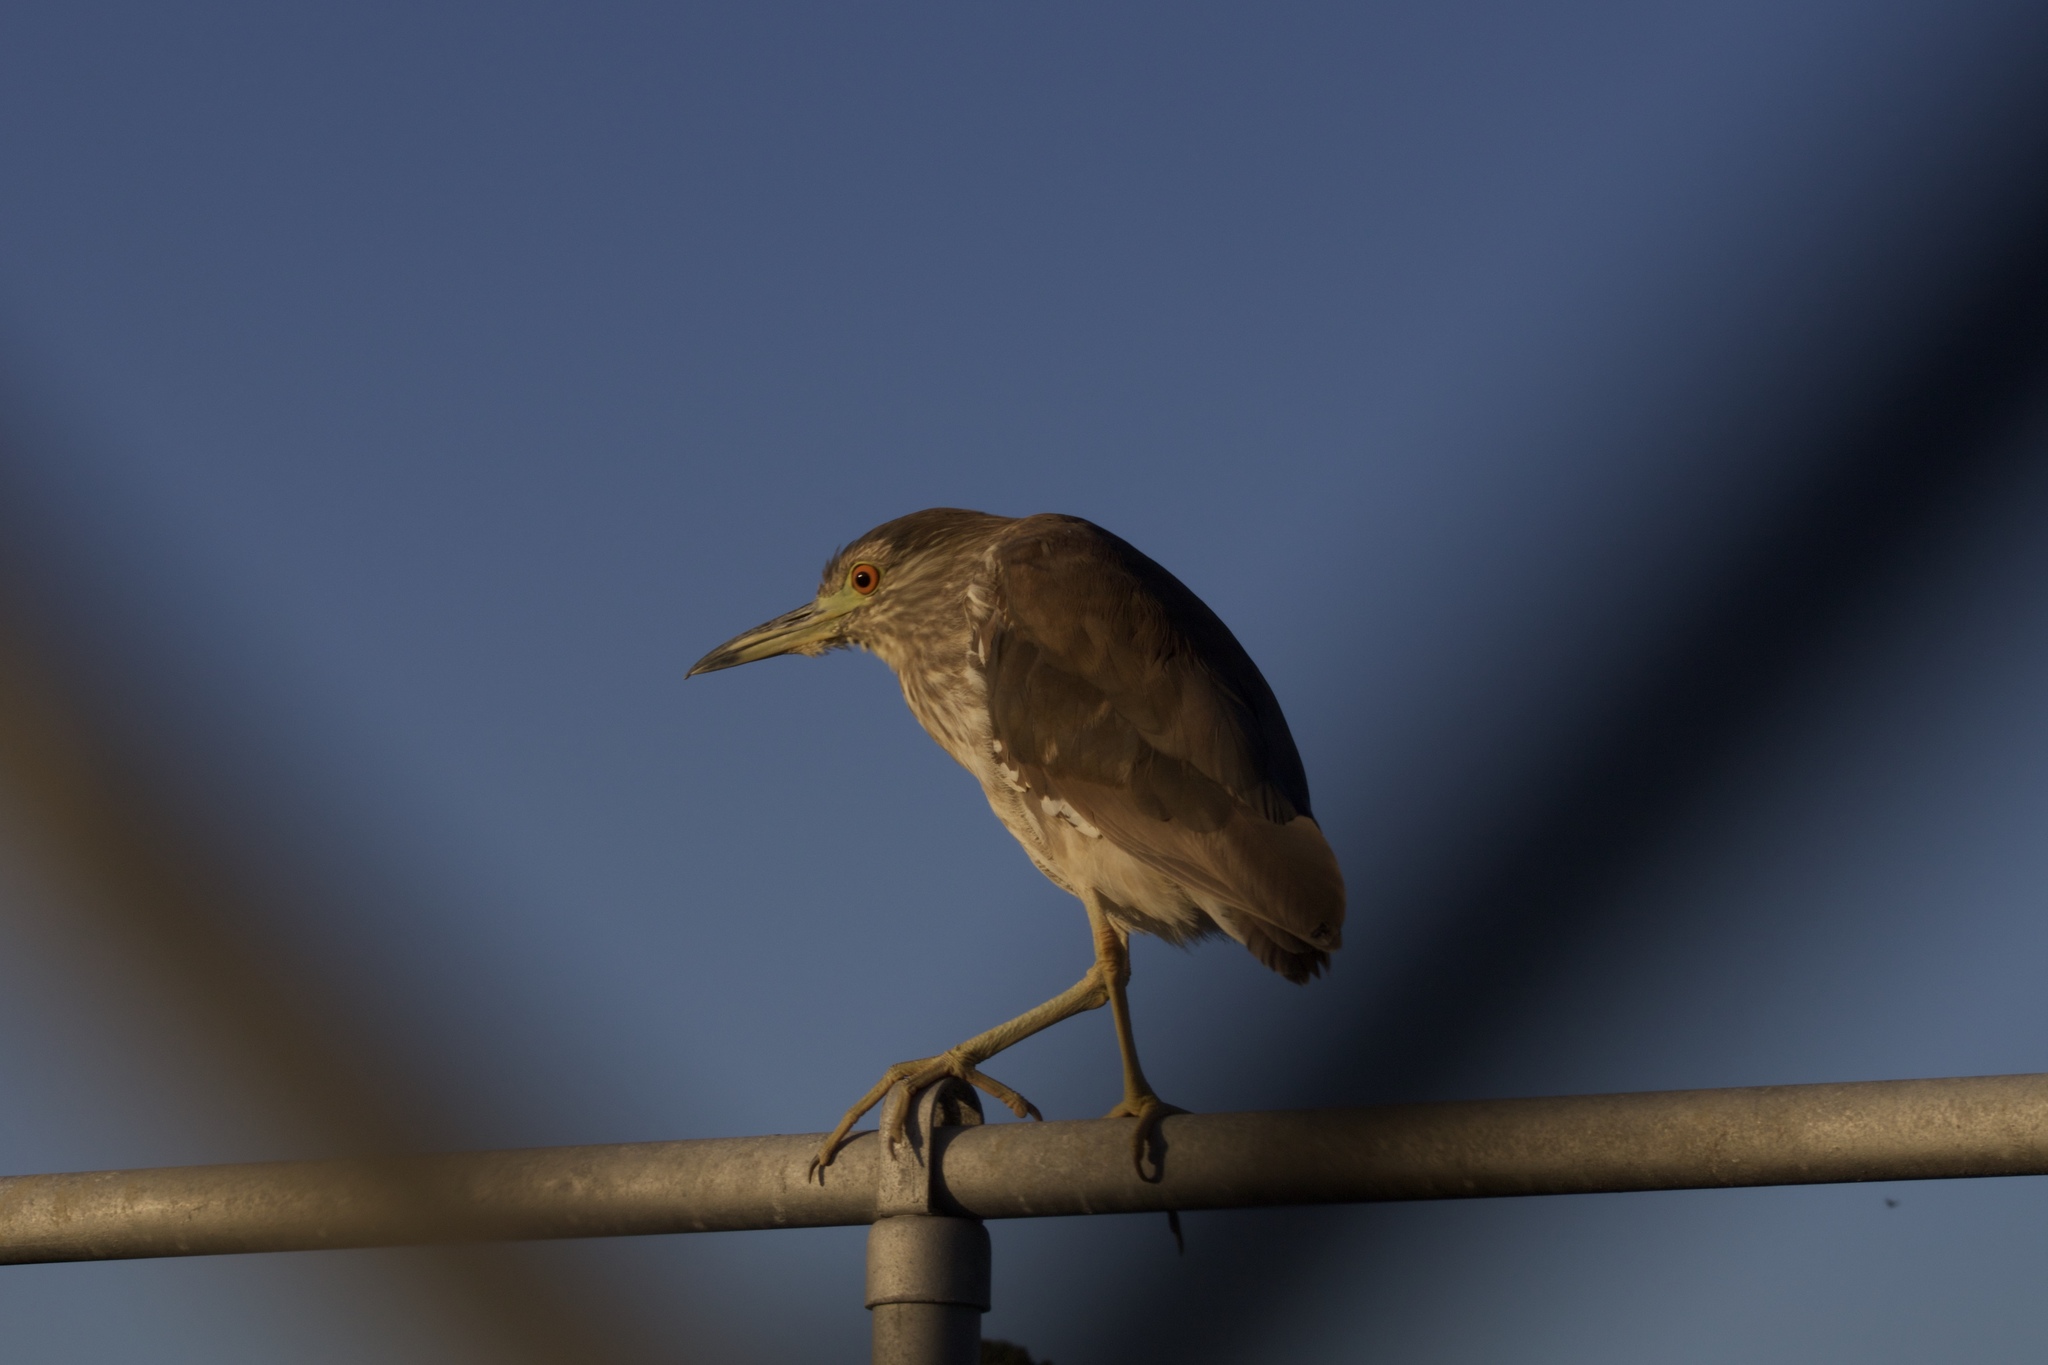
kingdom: Animalia
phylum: Chordata
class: Aves
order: Pelecaniformes
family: Ardeidae
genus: Nycticorax
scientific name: Nycticorax nycticorax
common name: Black-crowned night heron
